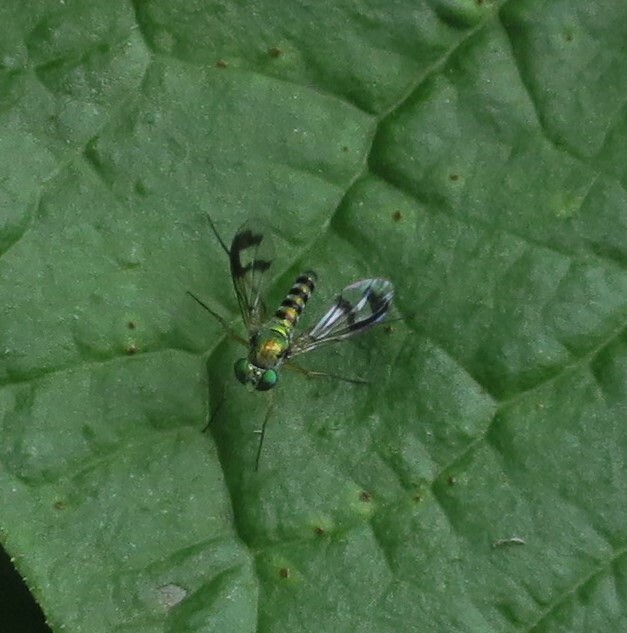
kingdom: Animalia
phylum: Arthropoda
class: Insecta
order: Diptera
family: Dolichopodidae
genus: Austrosciapus
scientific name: Austrosciapus proximus
